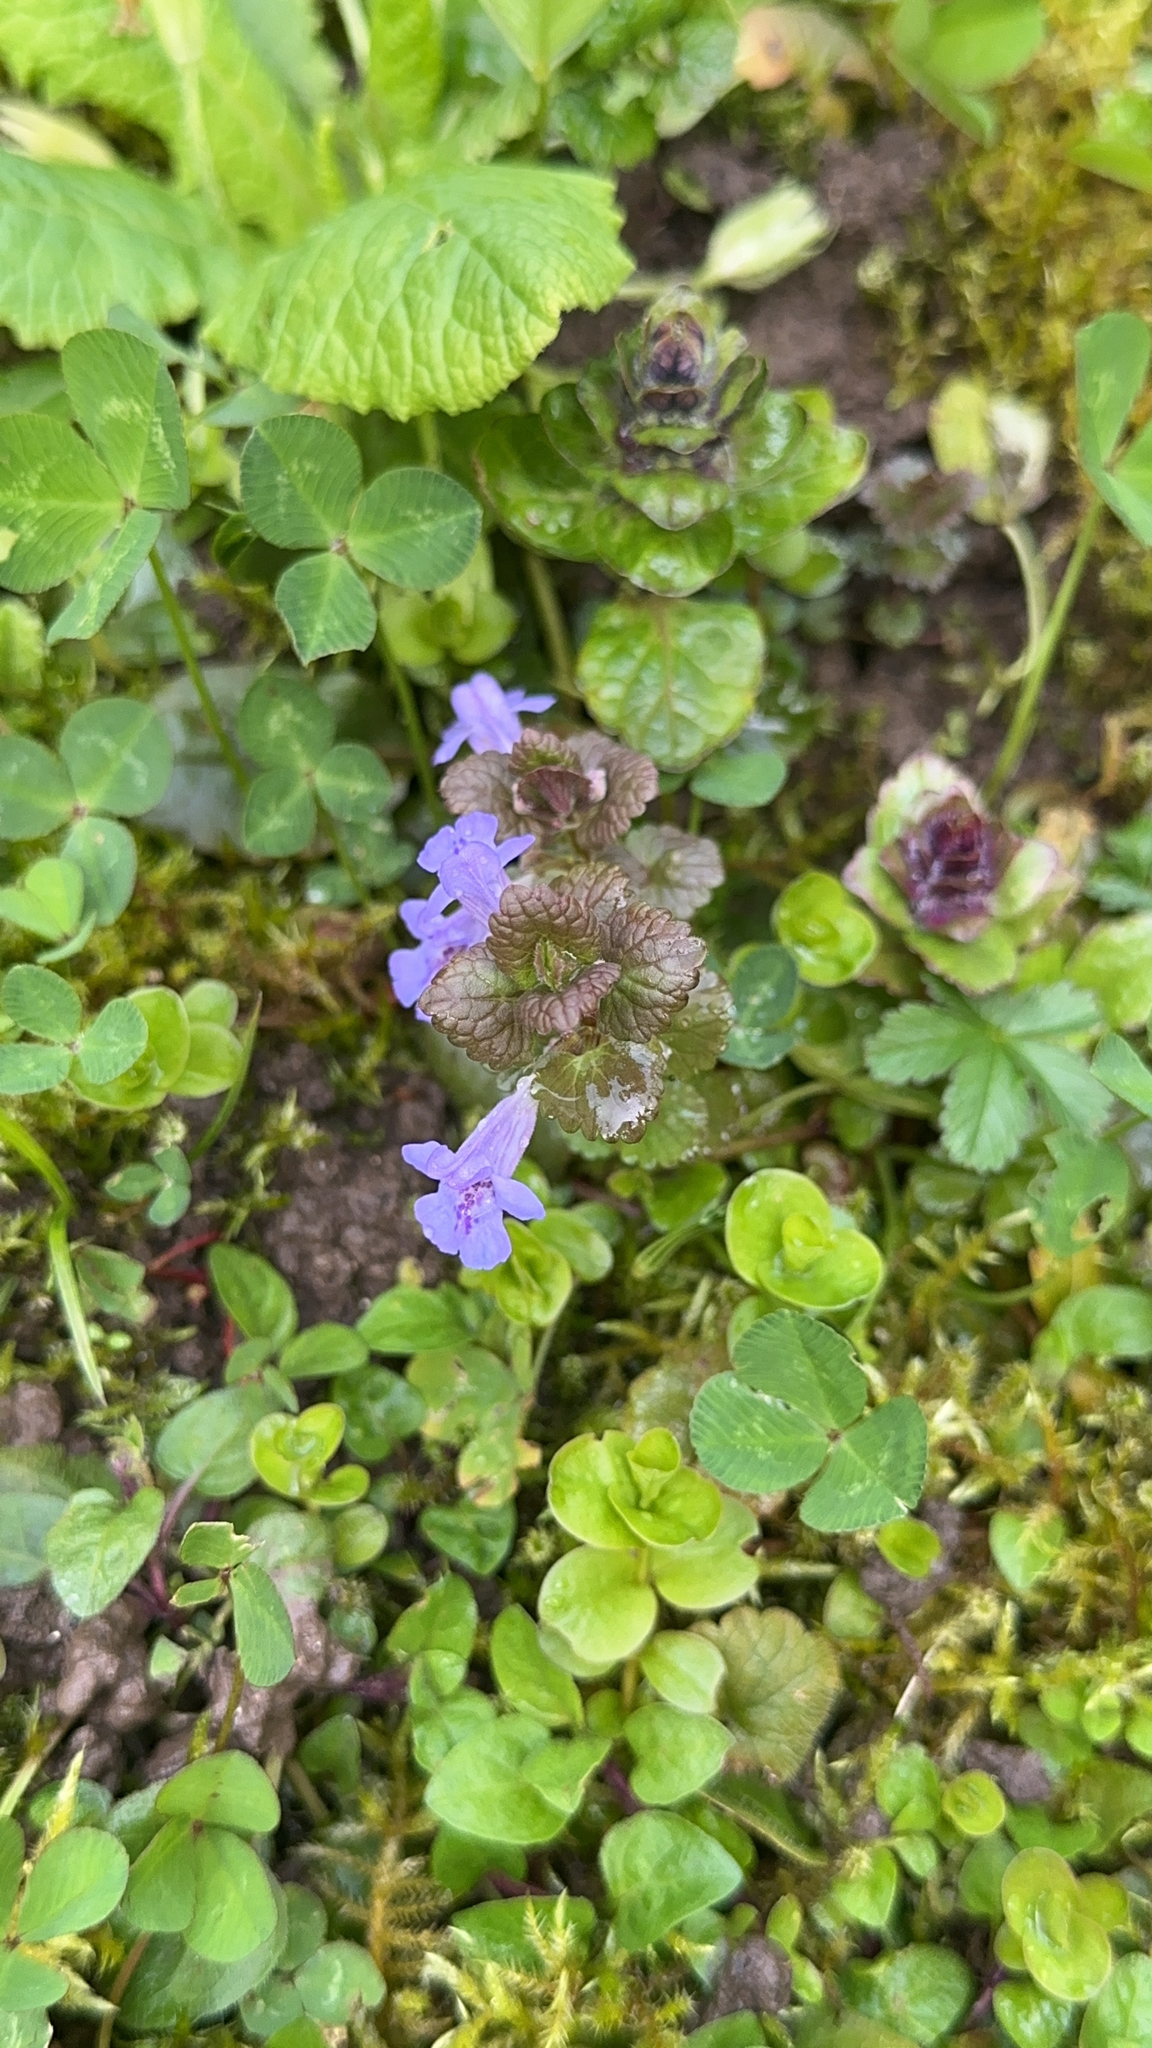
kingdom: Plantae
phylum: Tracheophyta
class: Magnoliopsida
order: Lamiales
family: Lamiaceae
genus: Glechoma
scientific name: Glechoma hederacea
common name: Ground ivy
